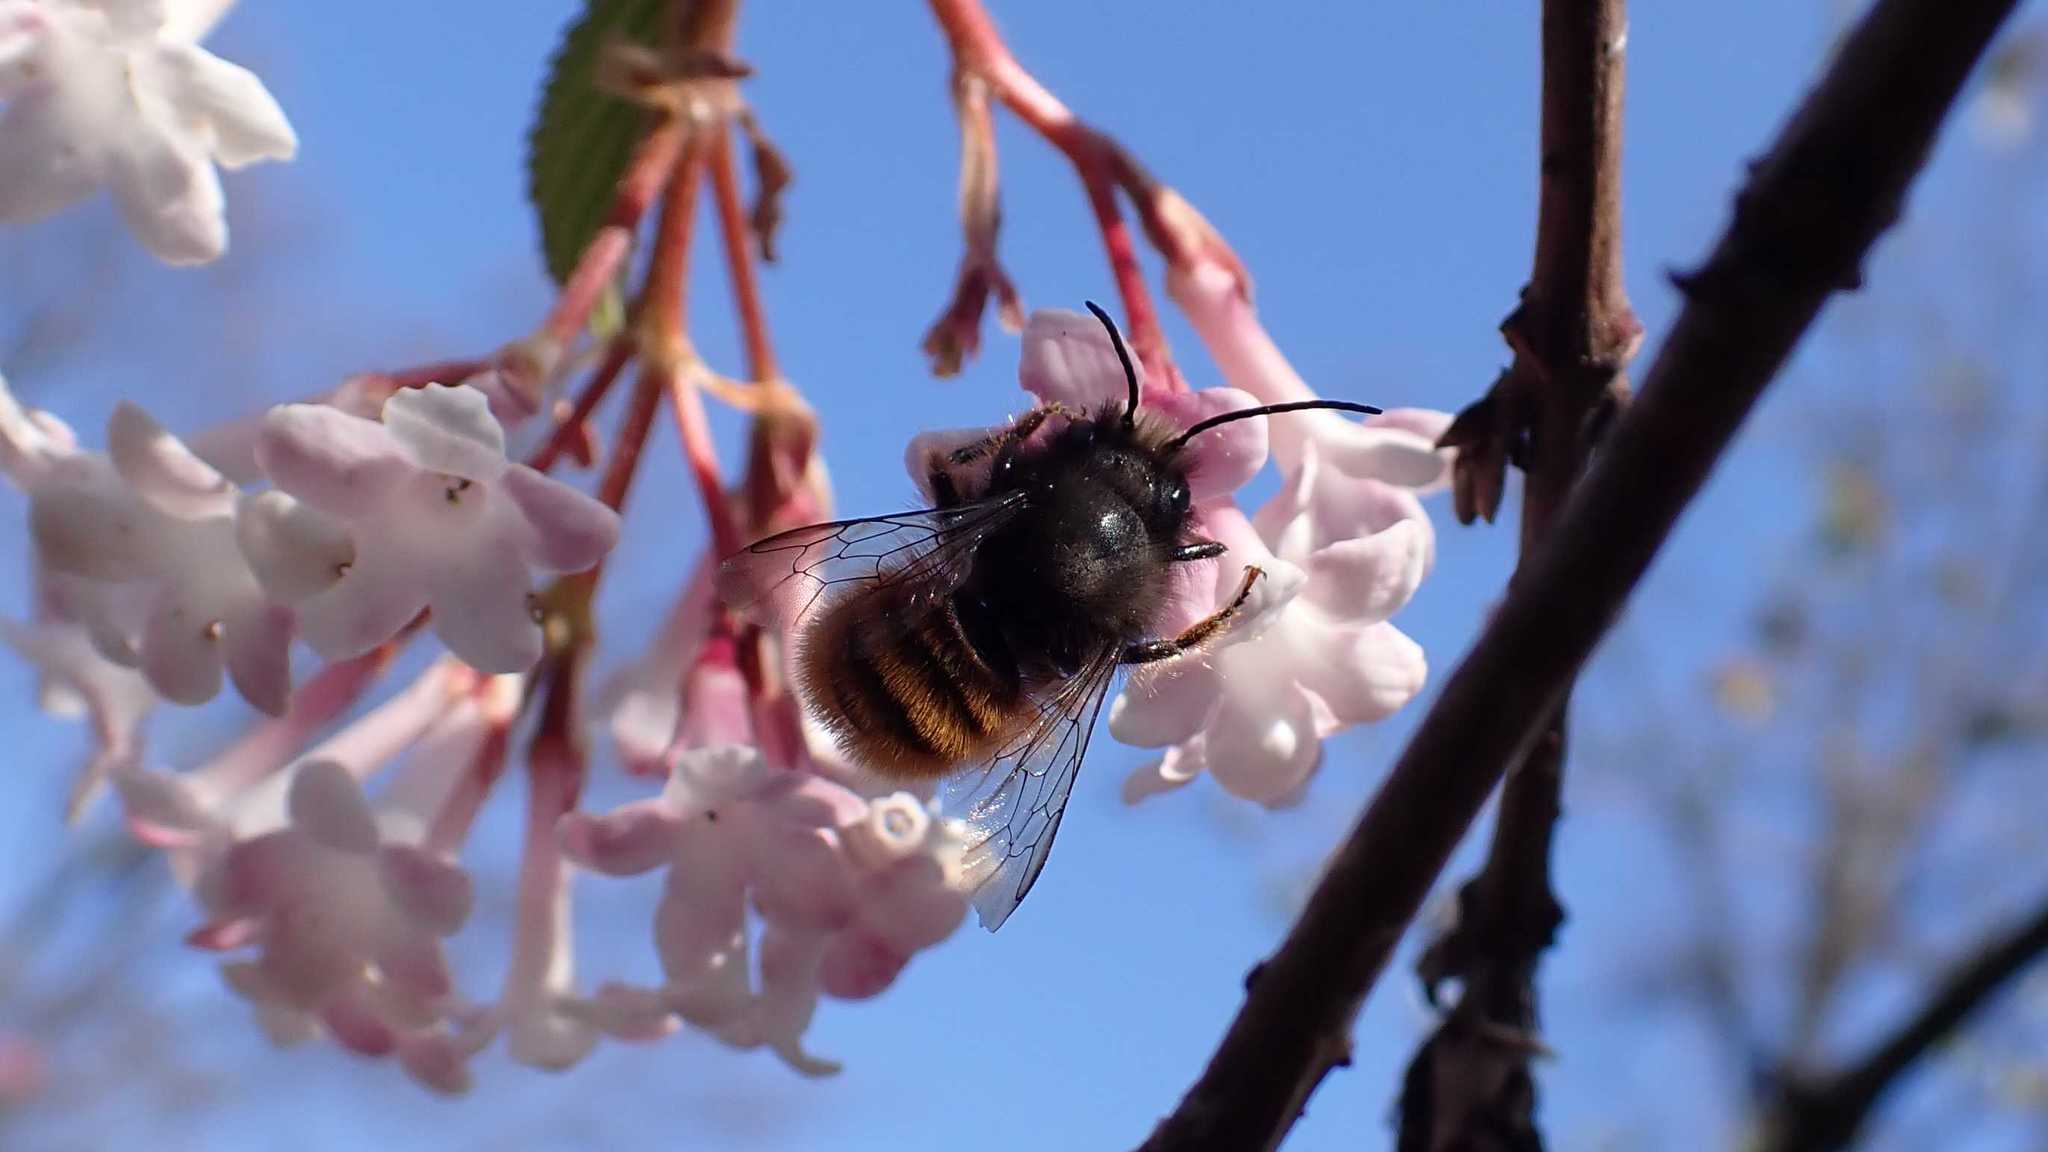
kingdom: Animalia
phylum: Arthropoda
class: Insecta
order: Hymenoptera
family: Megachilidae
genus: Osmia
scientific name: Osmia cornuta
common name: Mason bee
